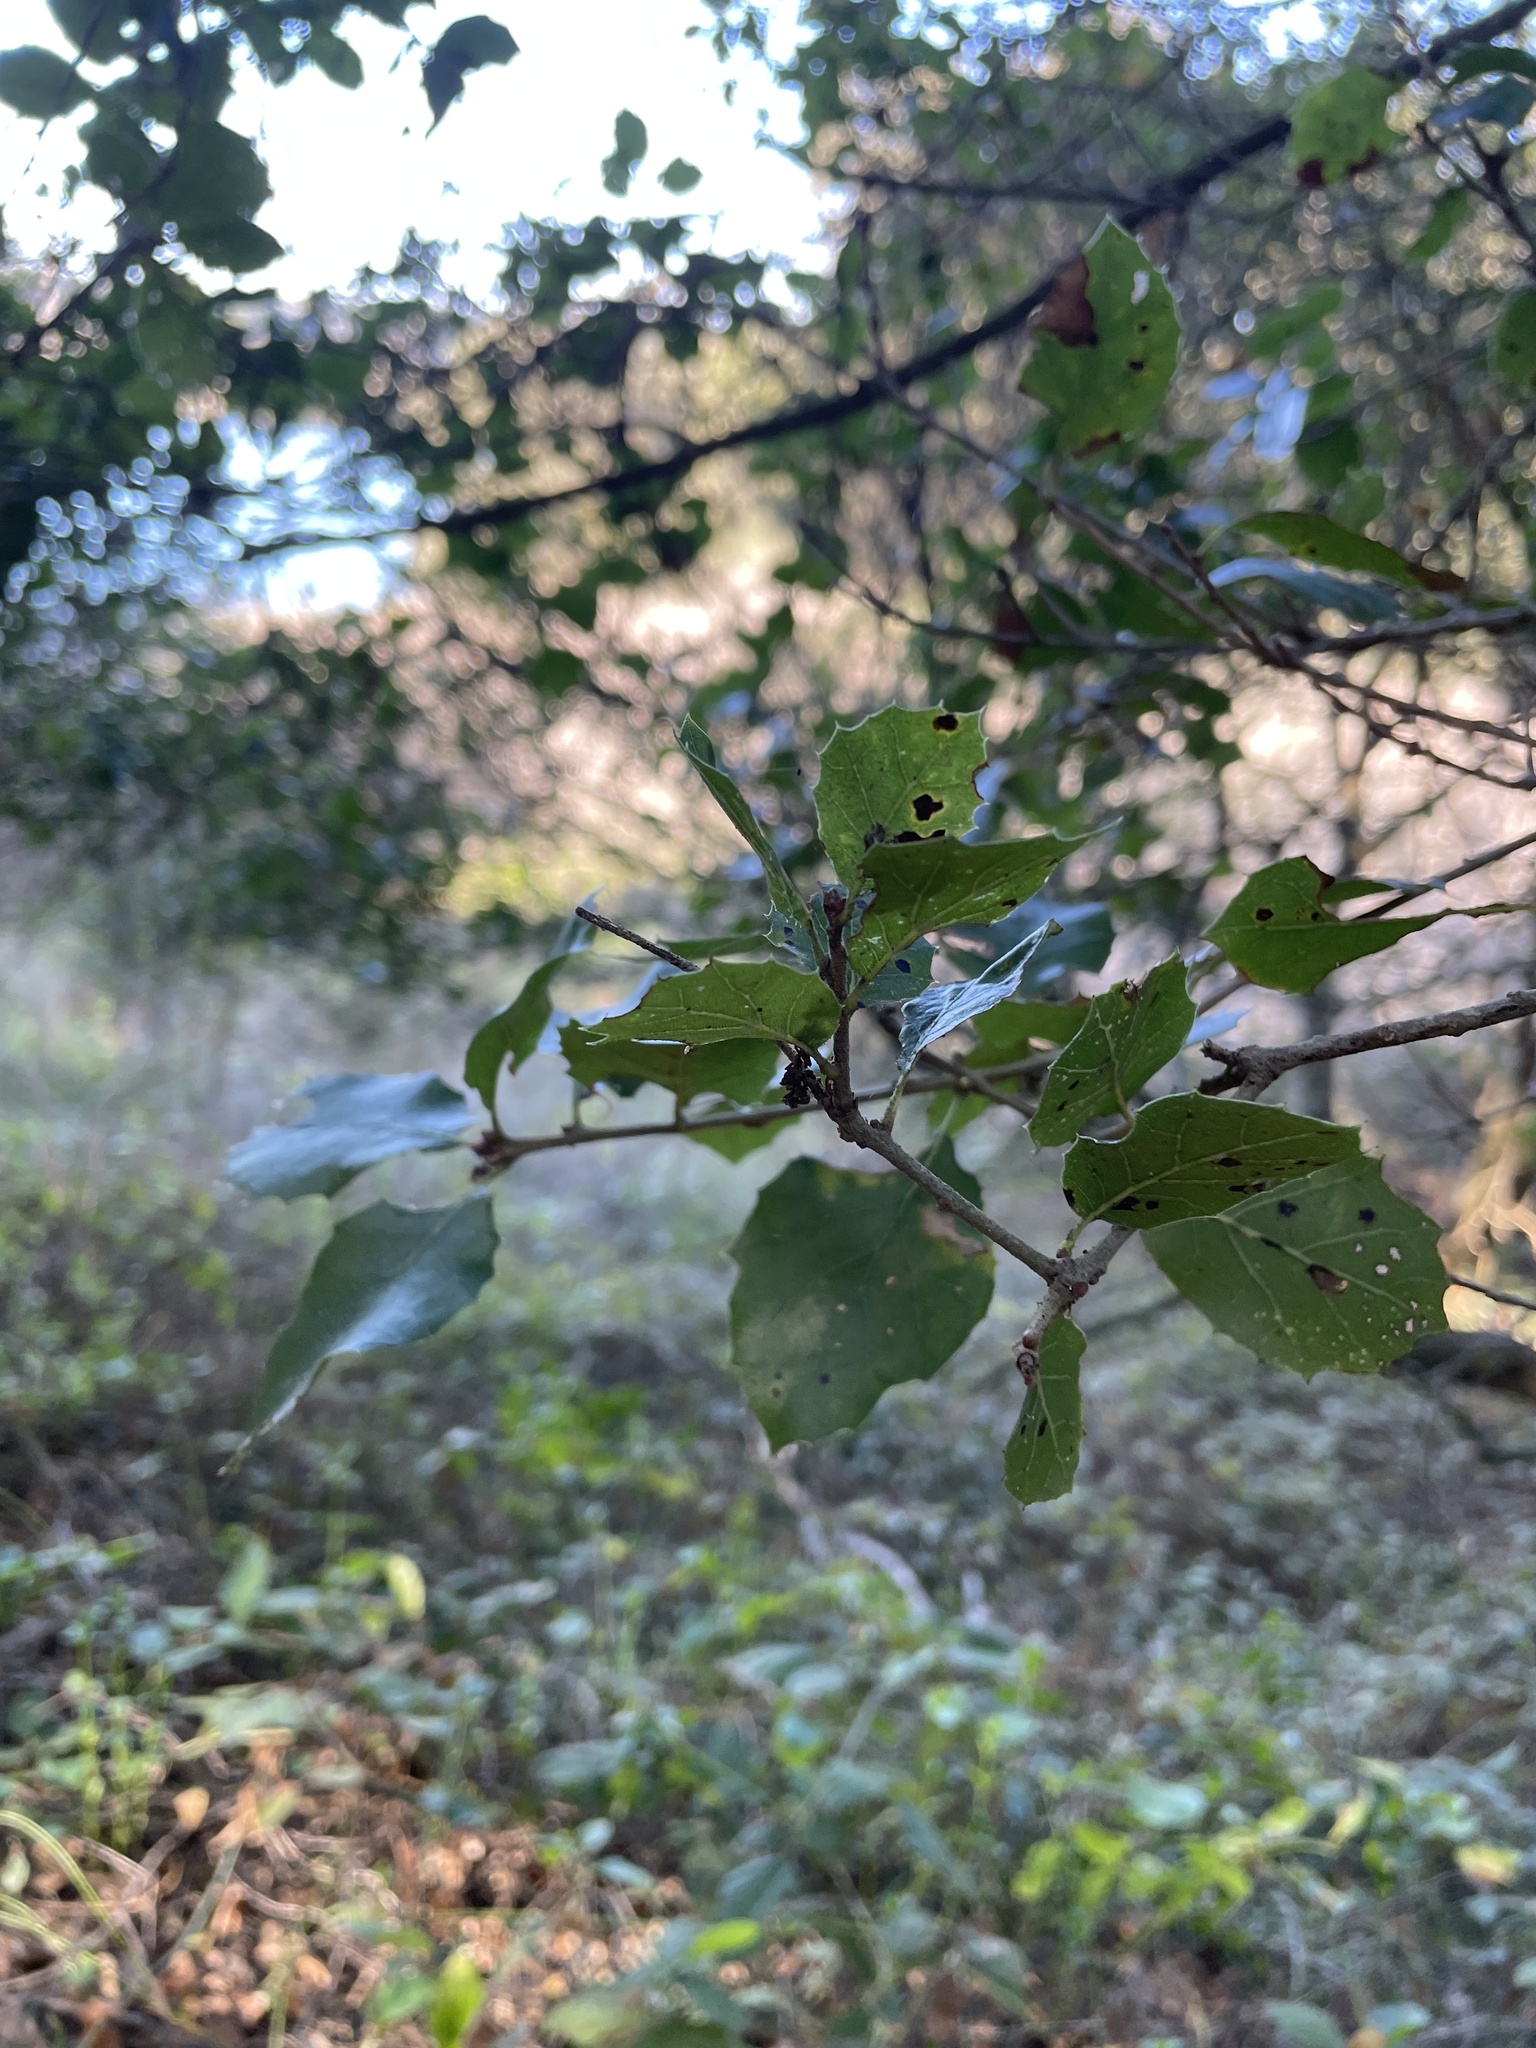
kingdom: Plantae
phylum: Tracheophyta
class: Magnoliopsida
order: Fagales
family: Fagaceae
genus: Quercus
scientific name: Quercus agrifolia
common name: California live oak
